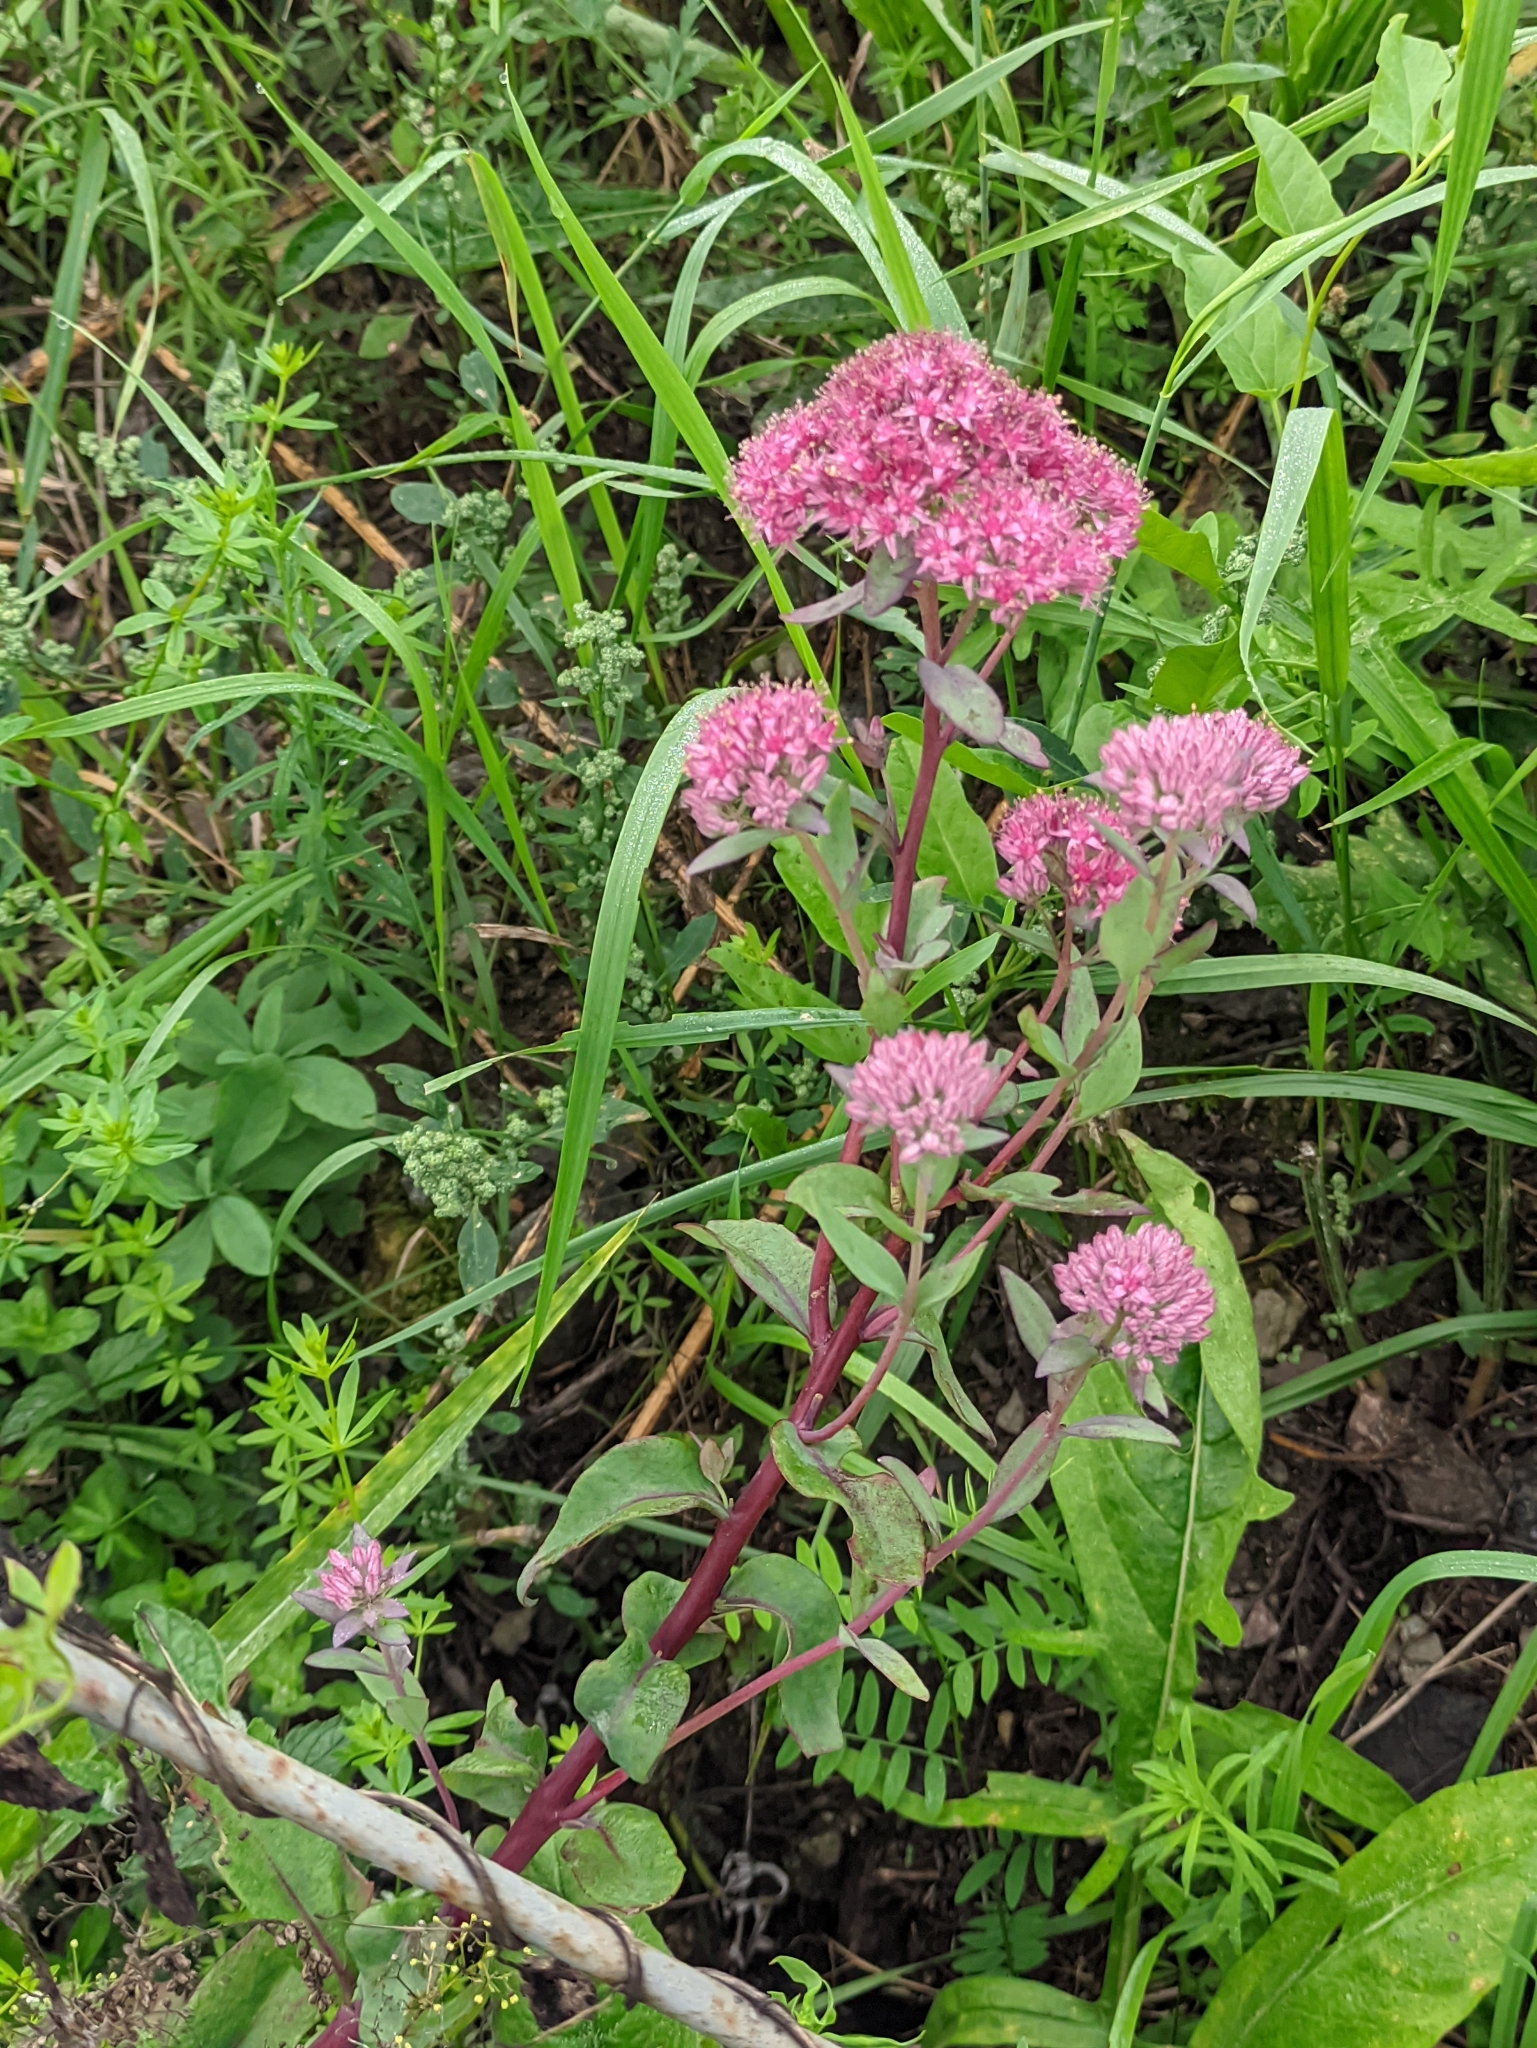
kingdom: Plantae
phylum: Tracheophyta
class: Magnoliopsida
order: Saxifragales
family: Crassulaceae
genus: Hylotelephium
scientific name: Hylotelephium telephium
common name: Live-forever
